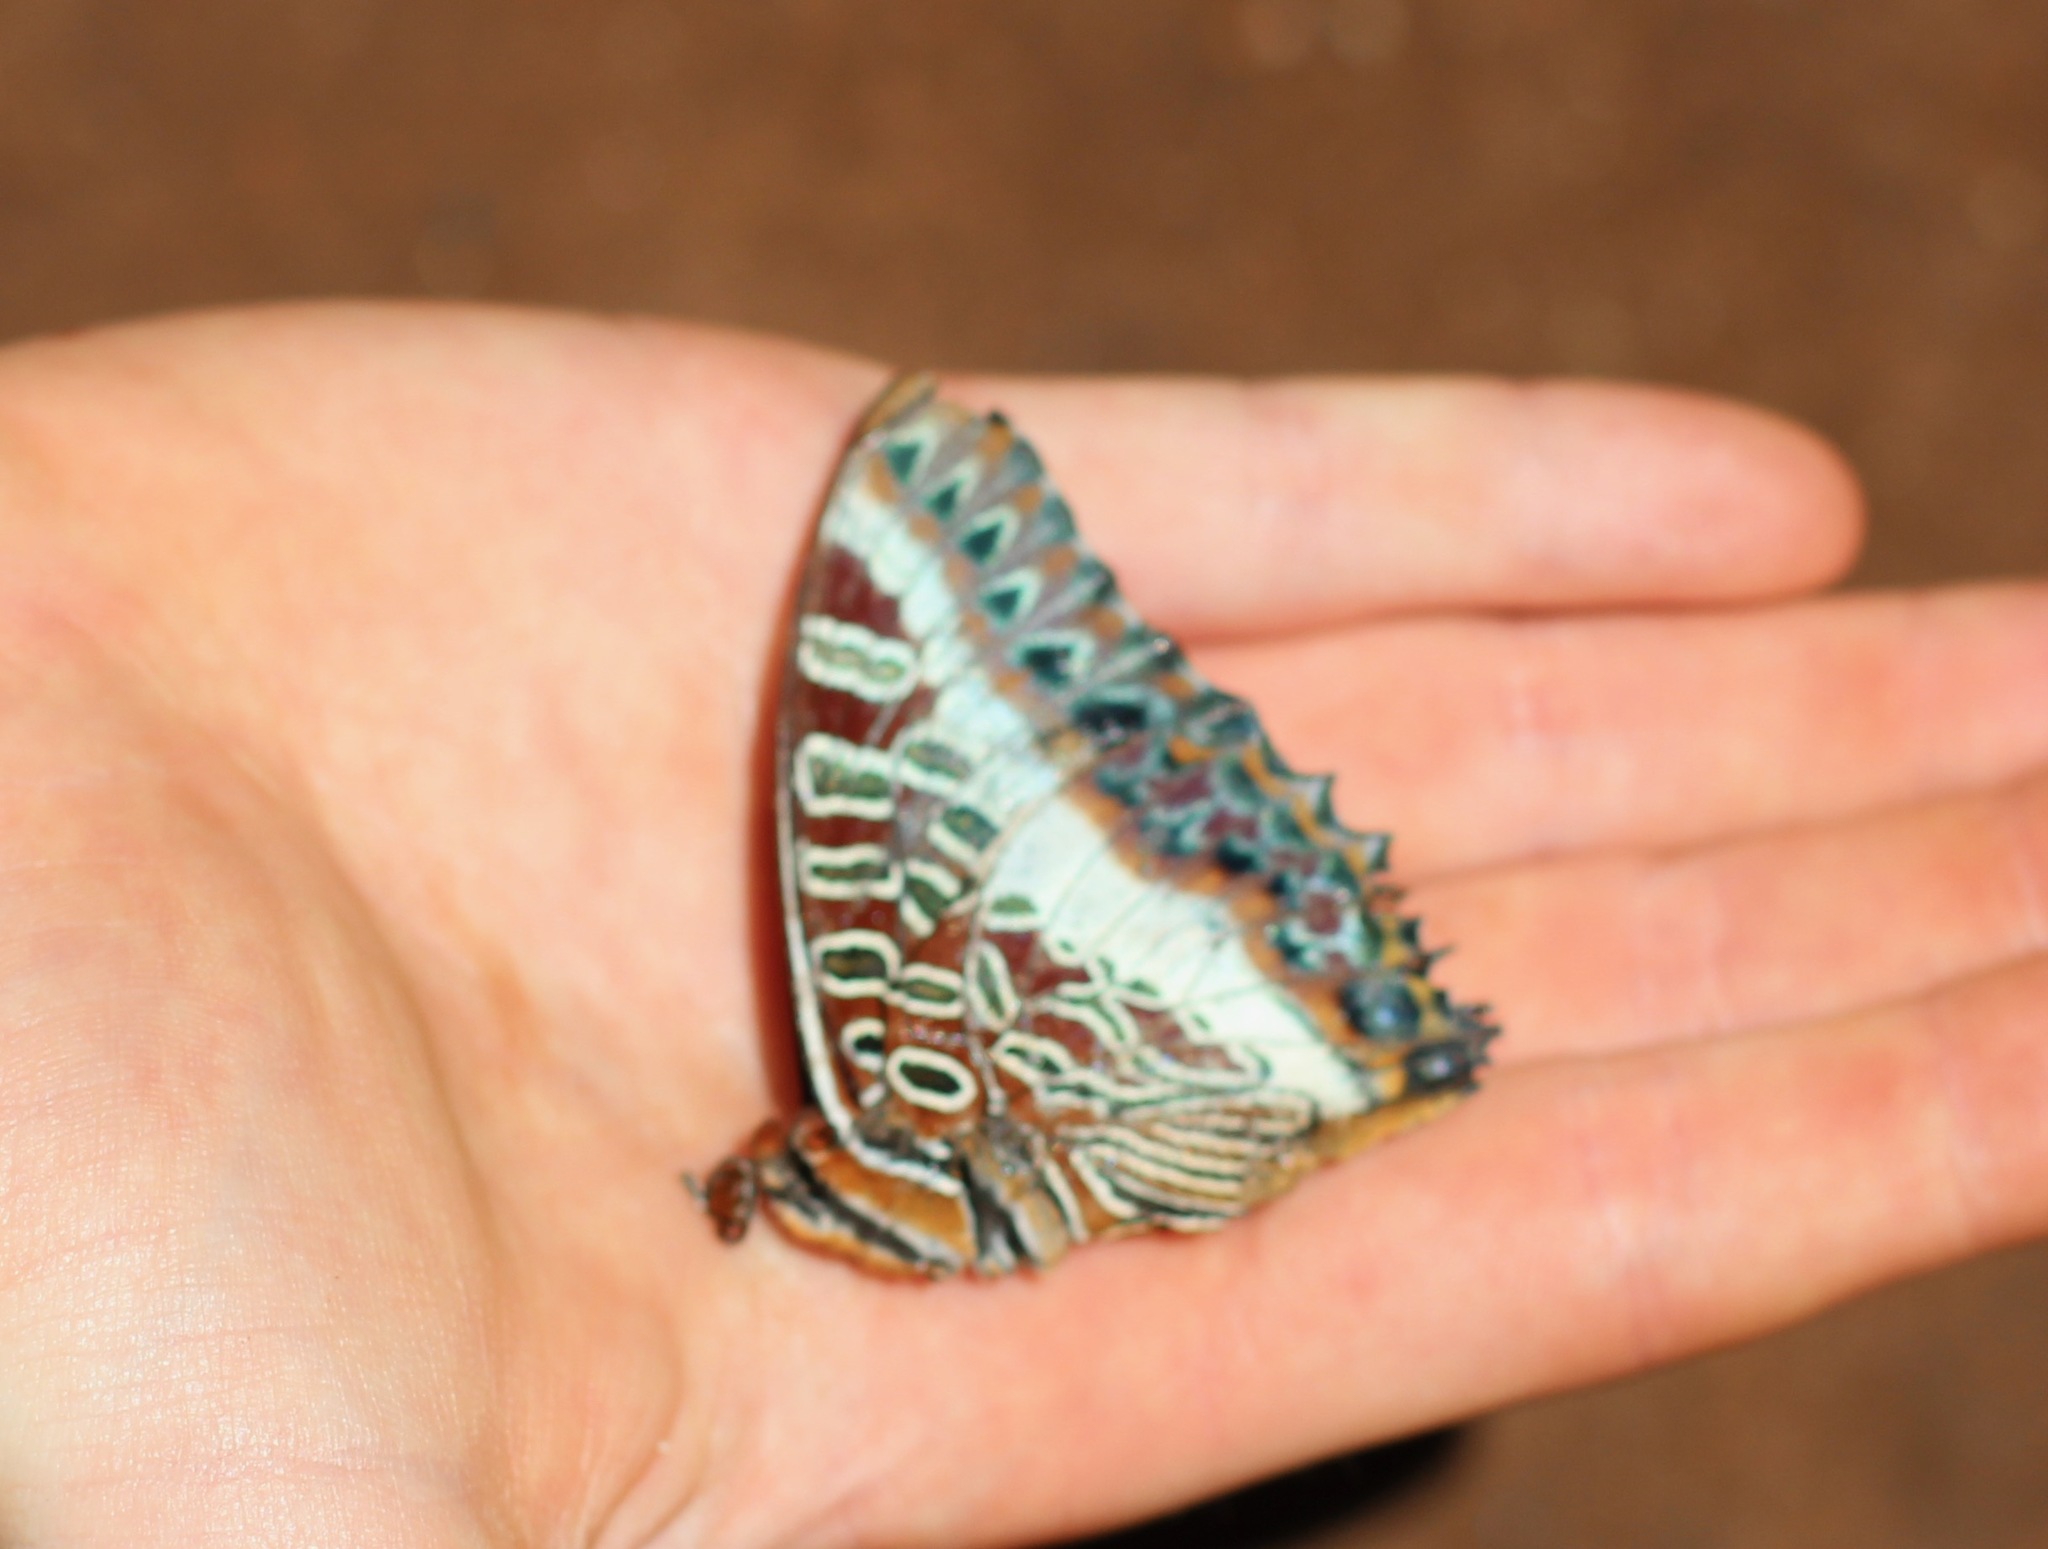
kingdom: Animalia
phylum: Arthropoda
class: Insecta
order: Lepidoptera
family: Nymphalidae
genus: Charaxes
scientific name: Charaxes brutus
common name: White-barred charaxes
